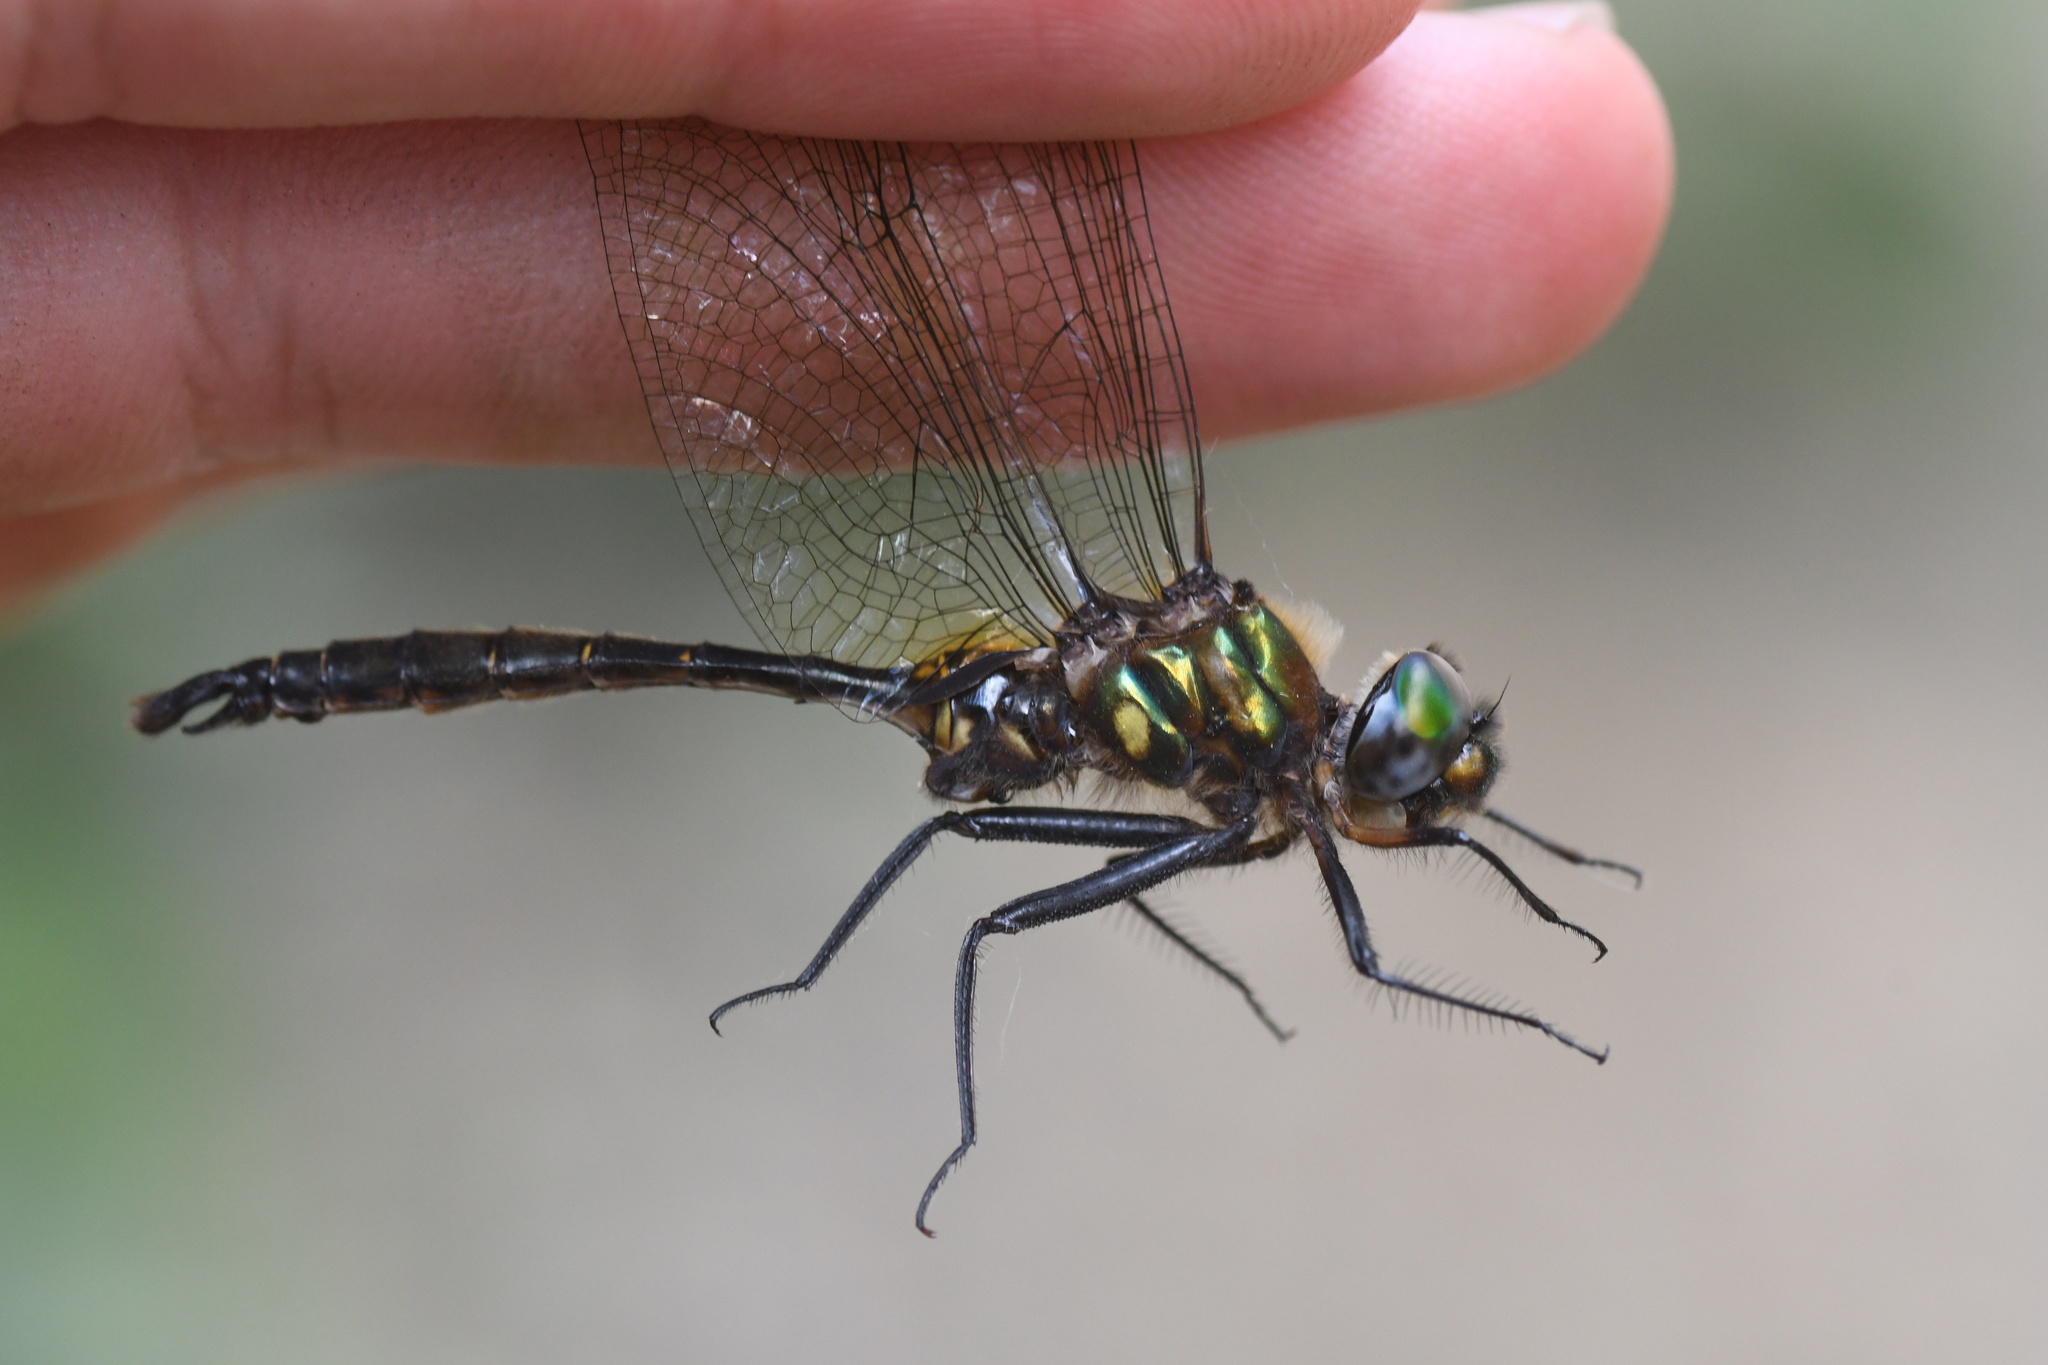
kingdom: Animalia
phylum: Arthropoda
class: Insecta
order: Odonata
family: Corduliidae
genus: Somatochlora
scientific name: Somatochlora walshii
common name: Brush-tipped emerald
